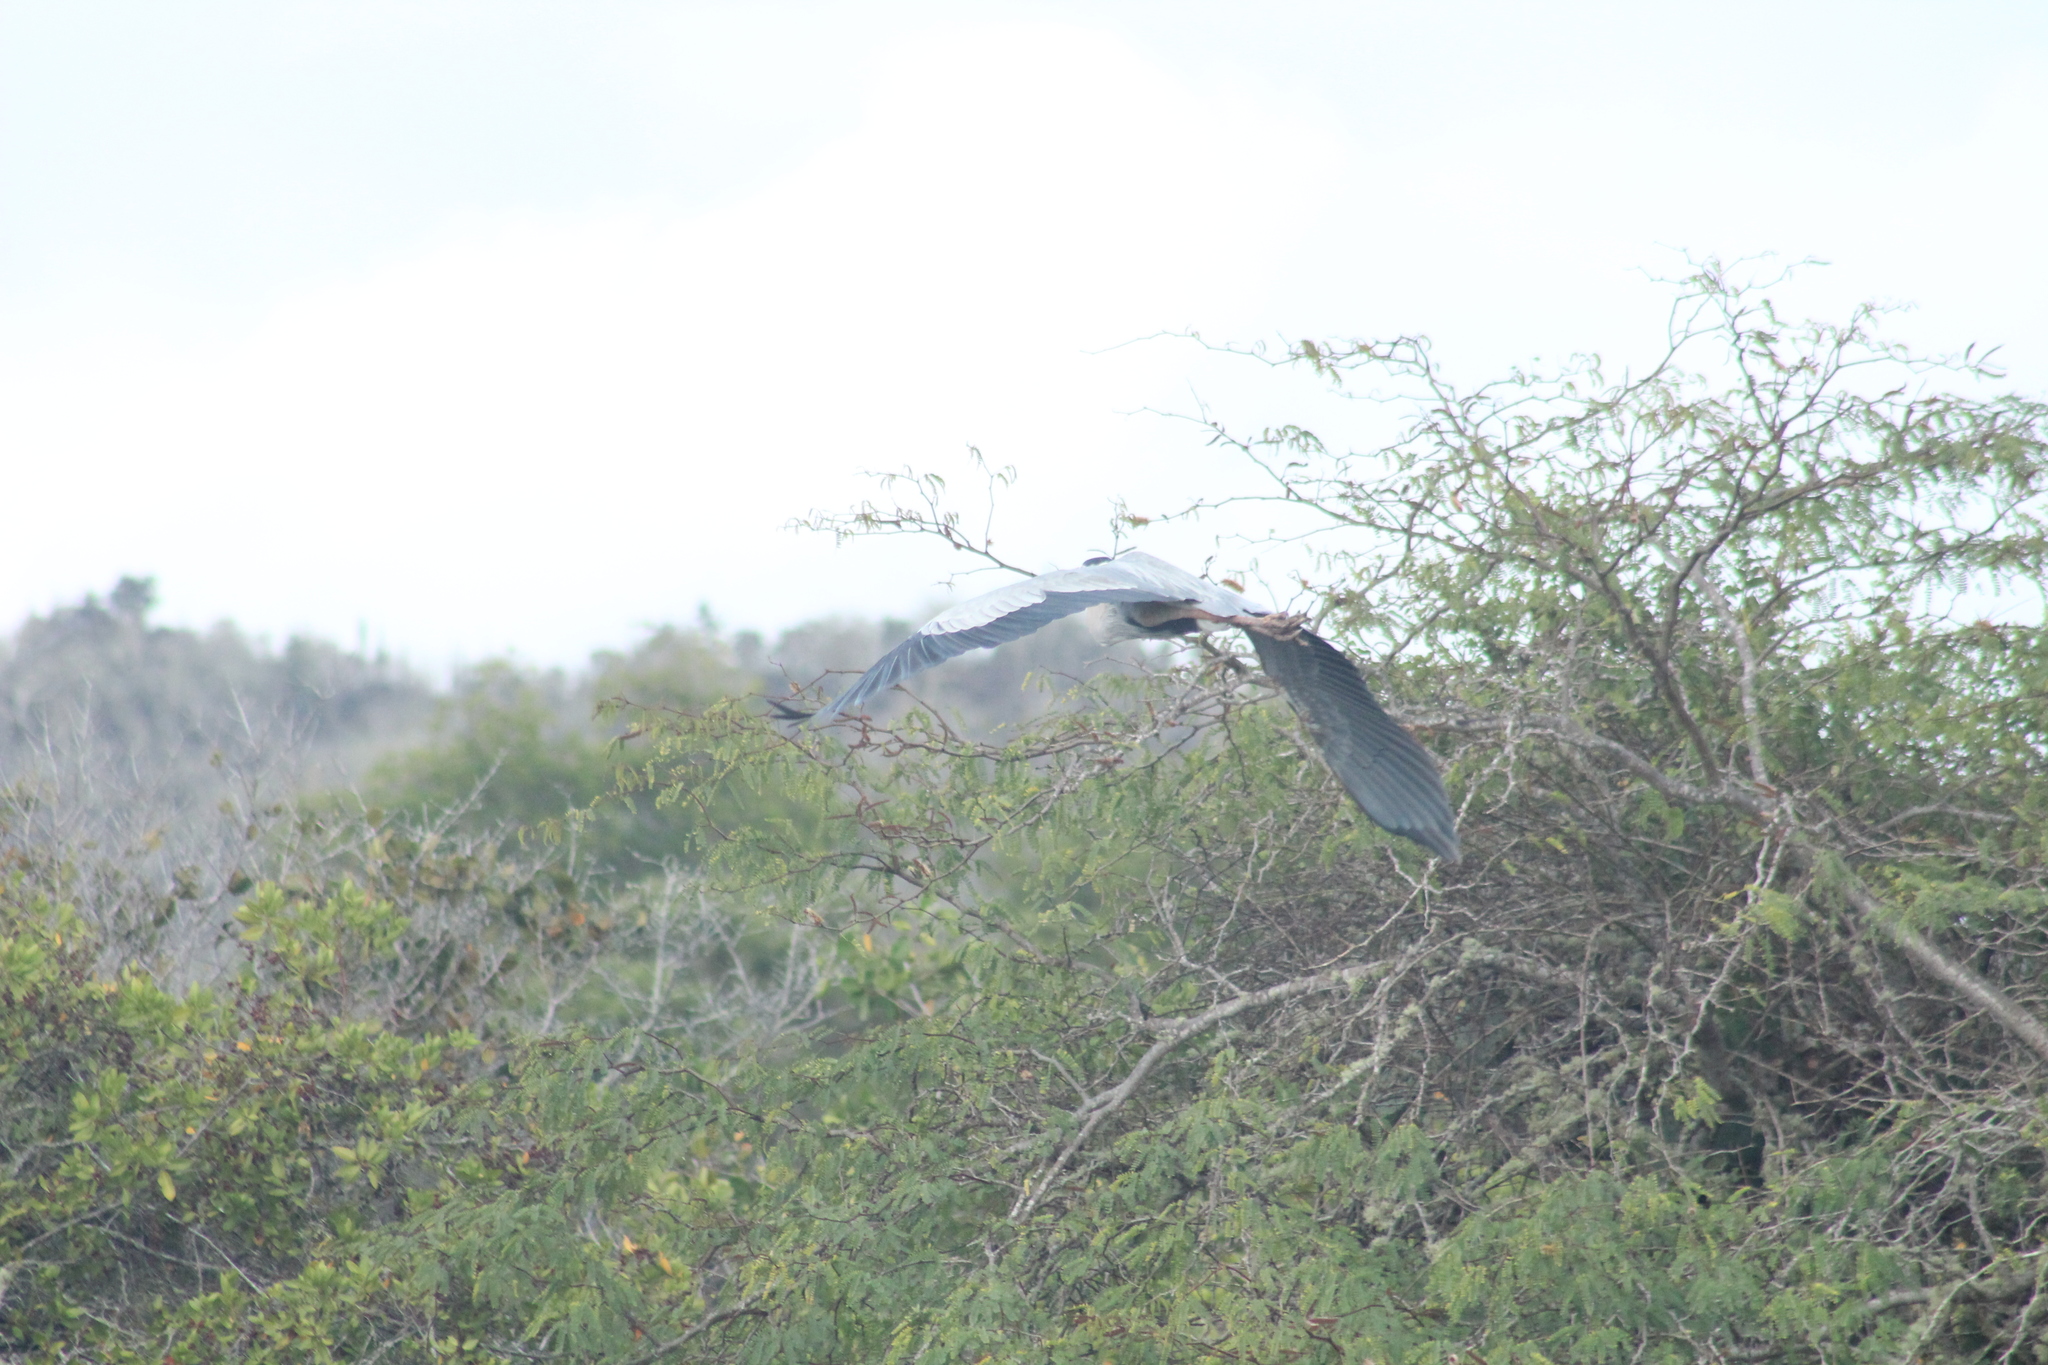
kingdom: Animalia
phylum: Chordata
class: Aves
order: Pelecaniformes
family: Ardeidae
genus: Ardea
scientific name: Ardea herodias
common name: Great blue heron
